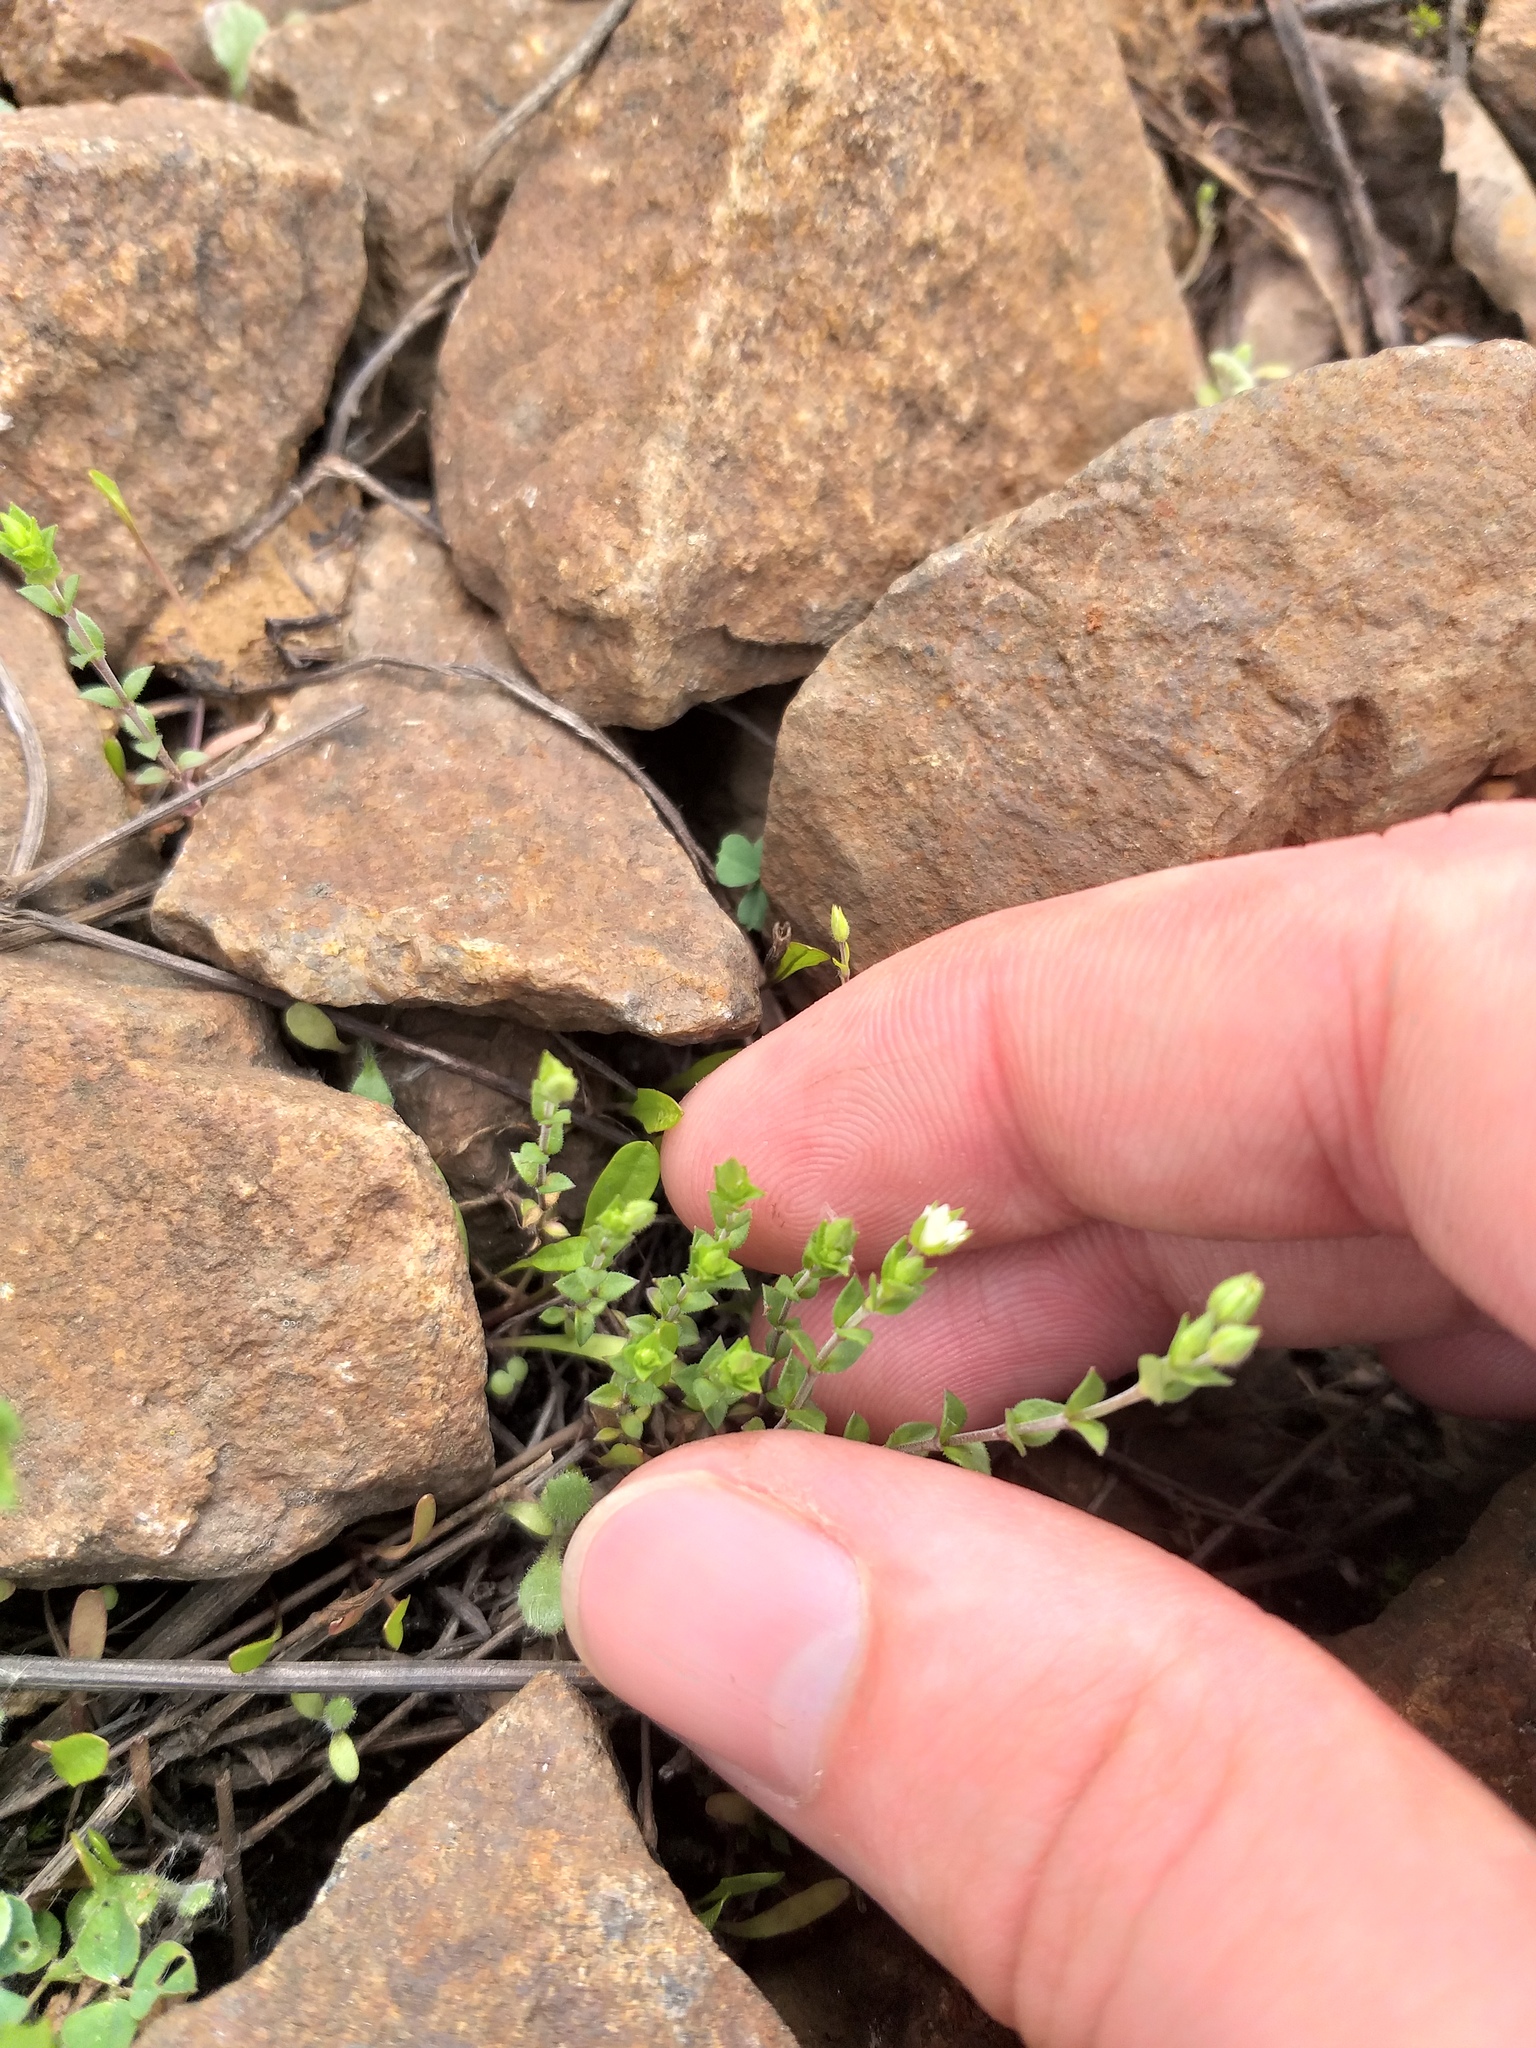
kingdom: Plantae
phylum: Tracheophyta
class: Magnoliopsida
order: Caryophyllales
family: Caryophyllaceae
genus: Arenaria
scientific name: Arenaria serpyllifolia
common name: Thyme-leaved sandwort
